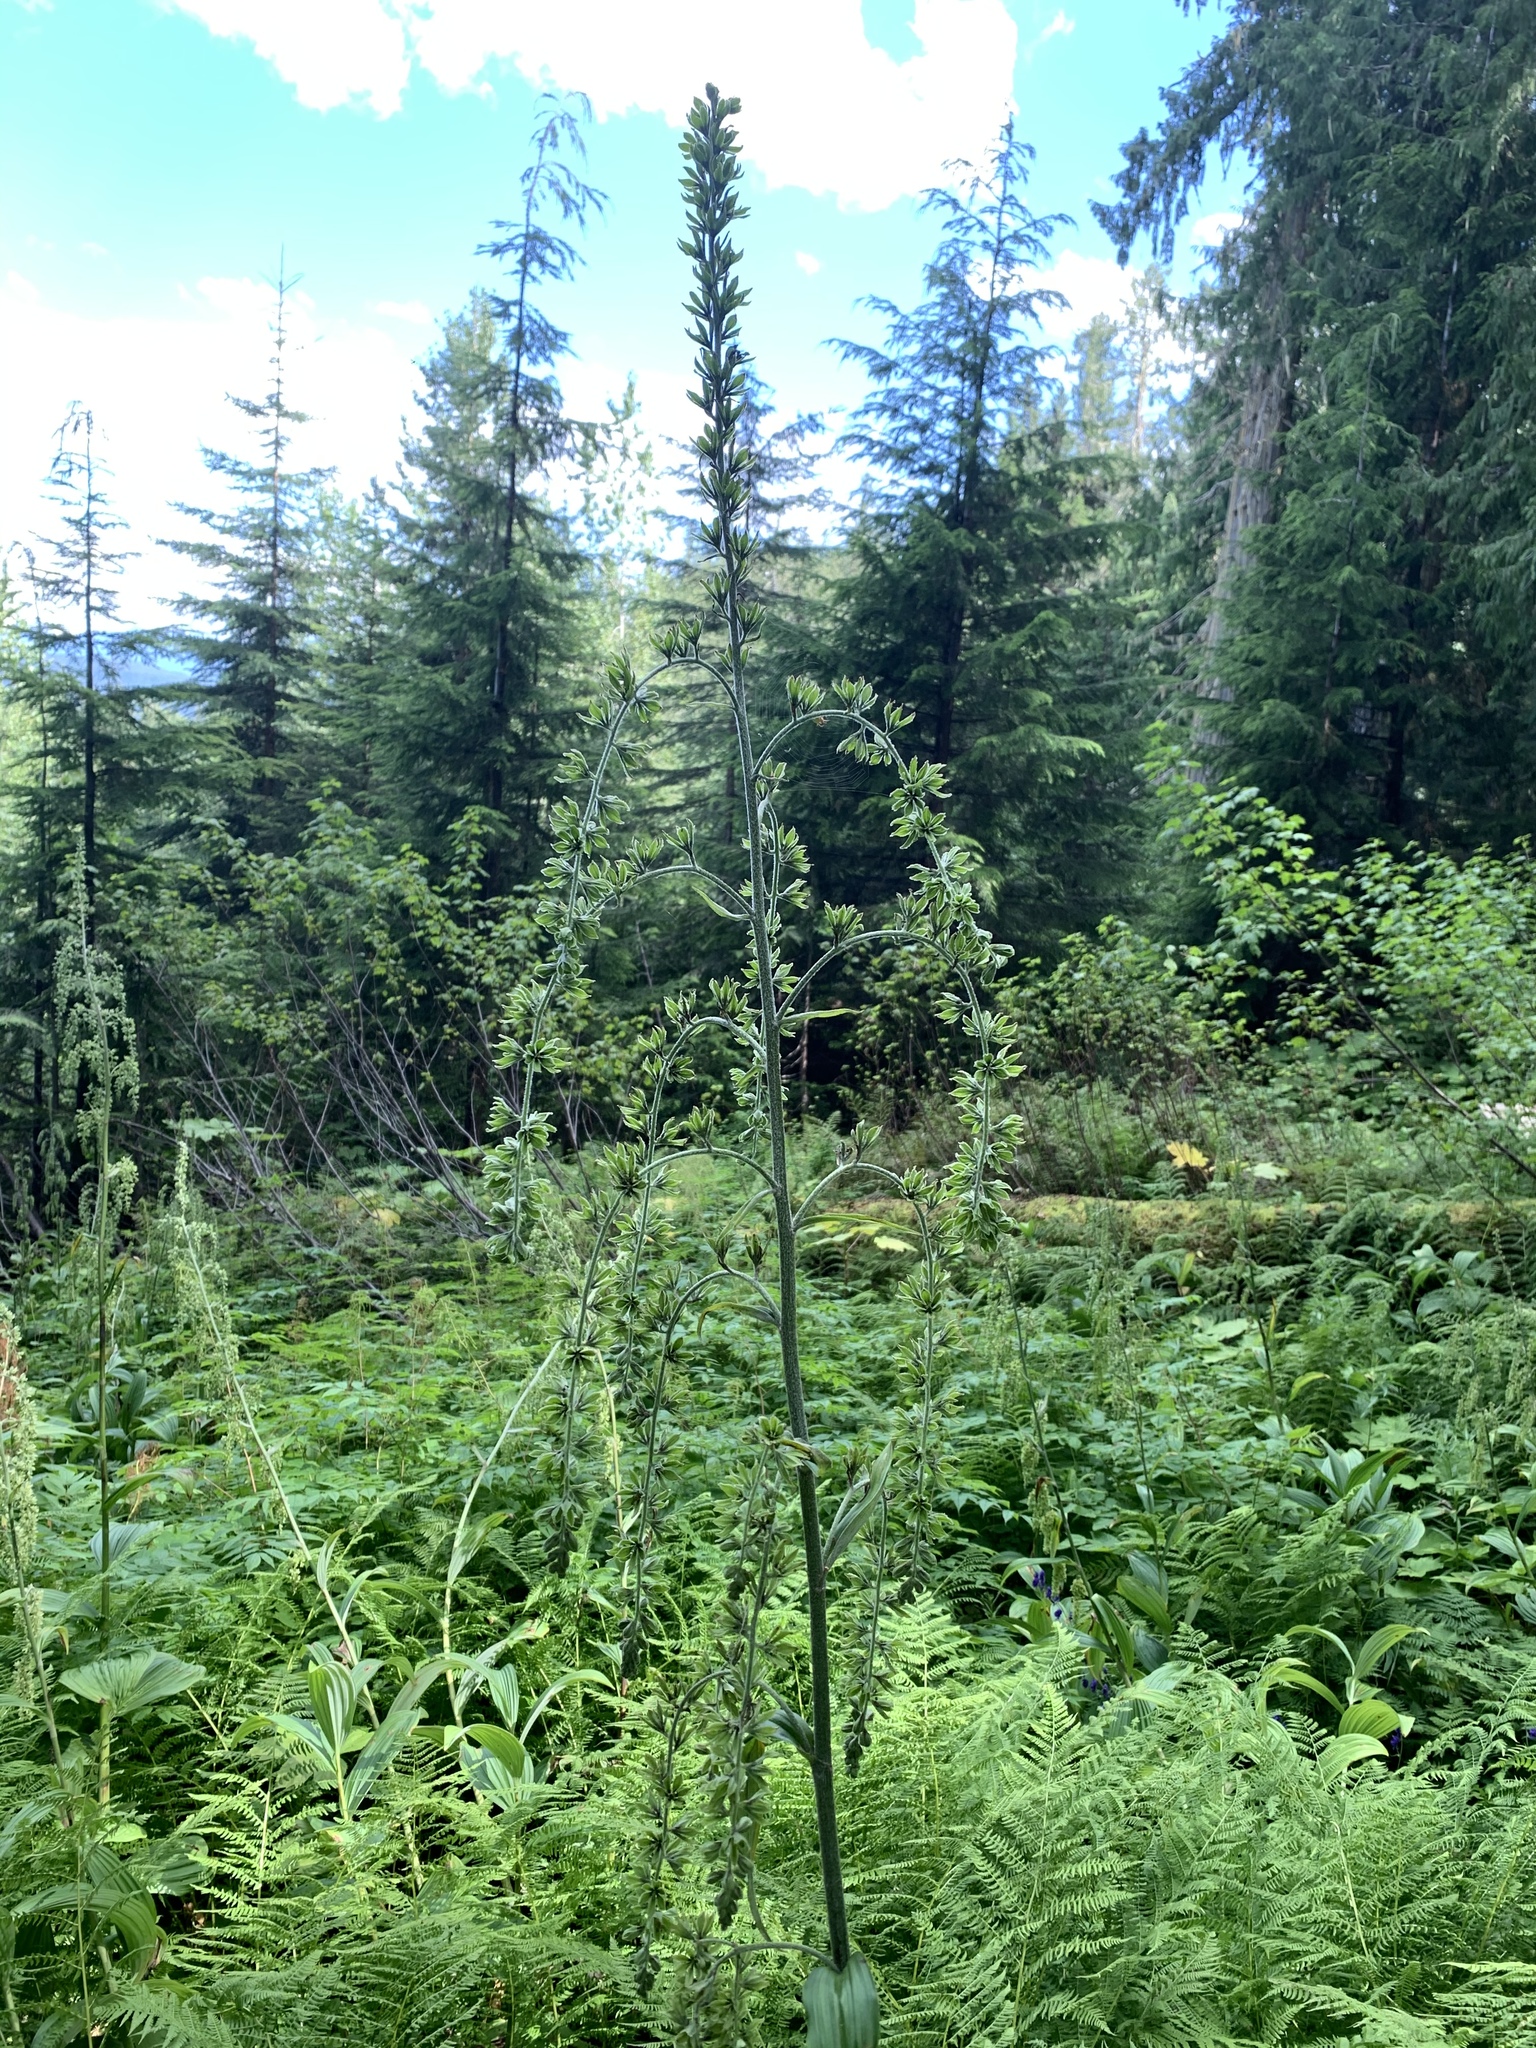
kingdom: Plantae
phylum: Tracheophyta
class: Liliopsida
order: Liliales
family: Melanthiaceae
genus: Veratrum
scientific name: Veratrum viride
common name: American false hellebore
